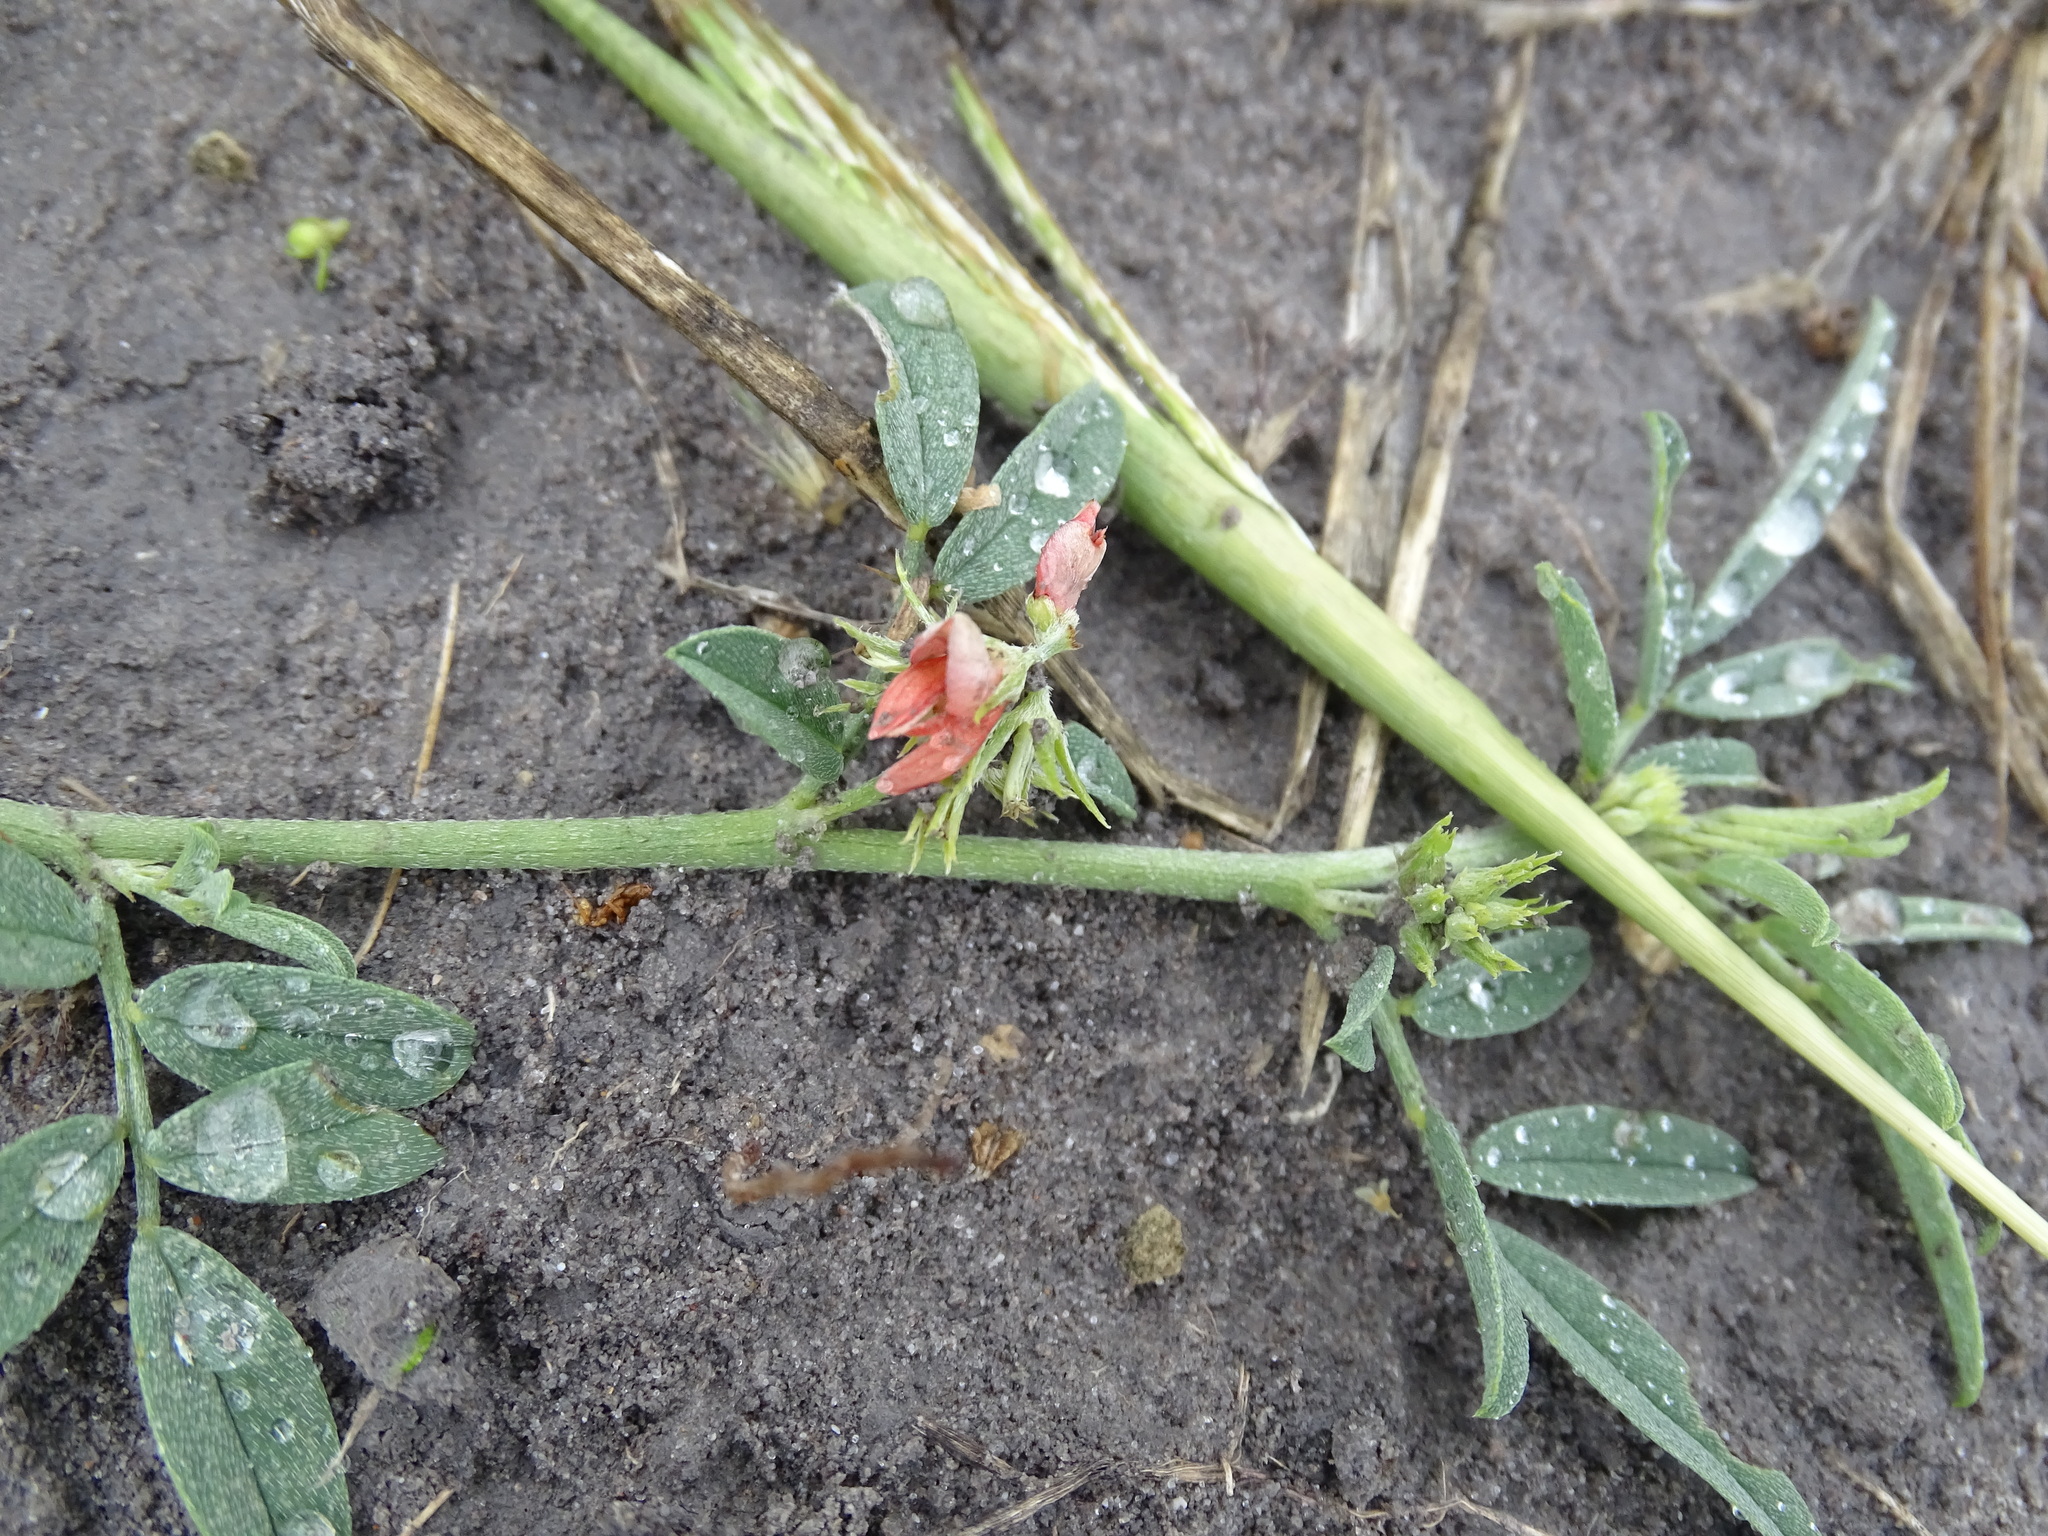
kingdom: Plantae
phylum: Tracheophyta
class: Magnoliopsida
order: Fabales
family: Fabaceae
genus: Indigofera
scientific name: Indigofera miniata
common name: Coast indigo
